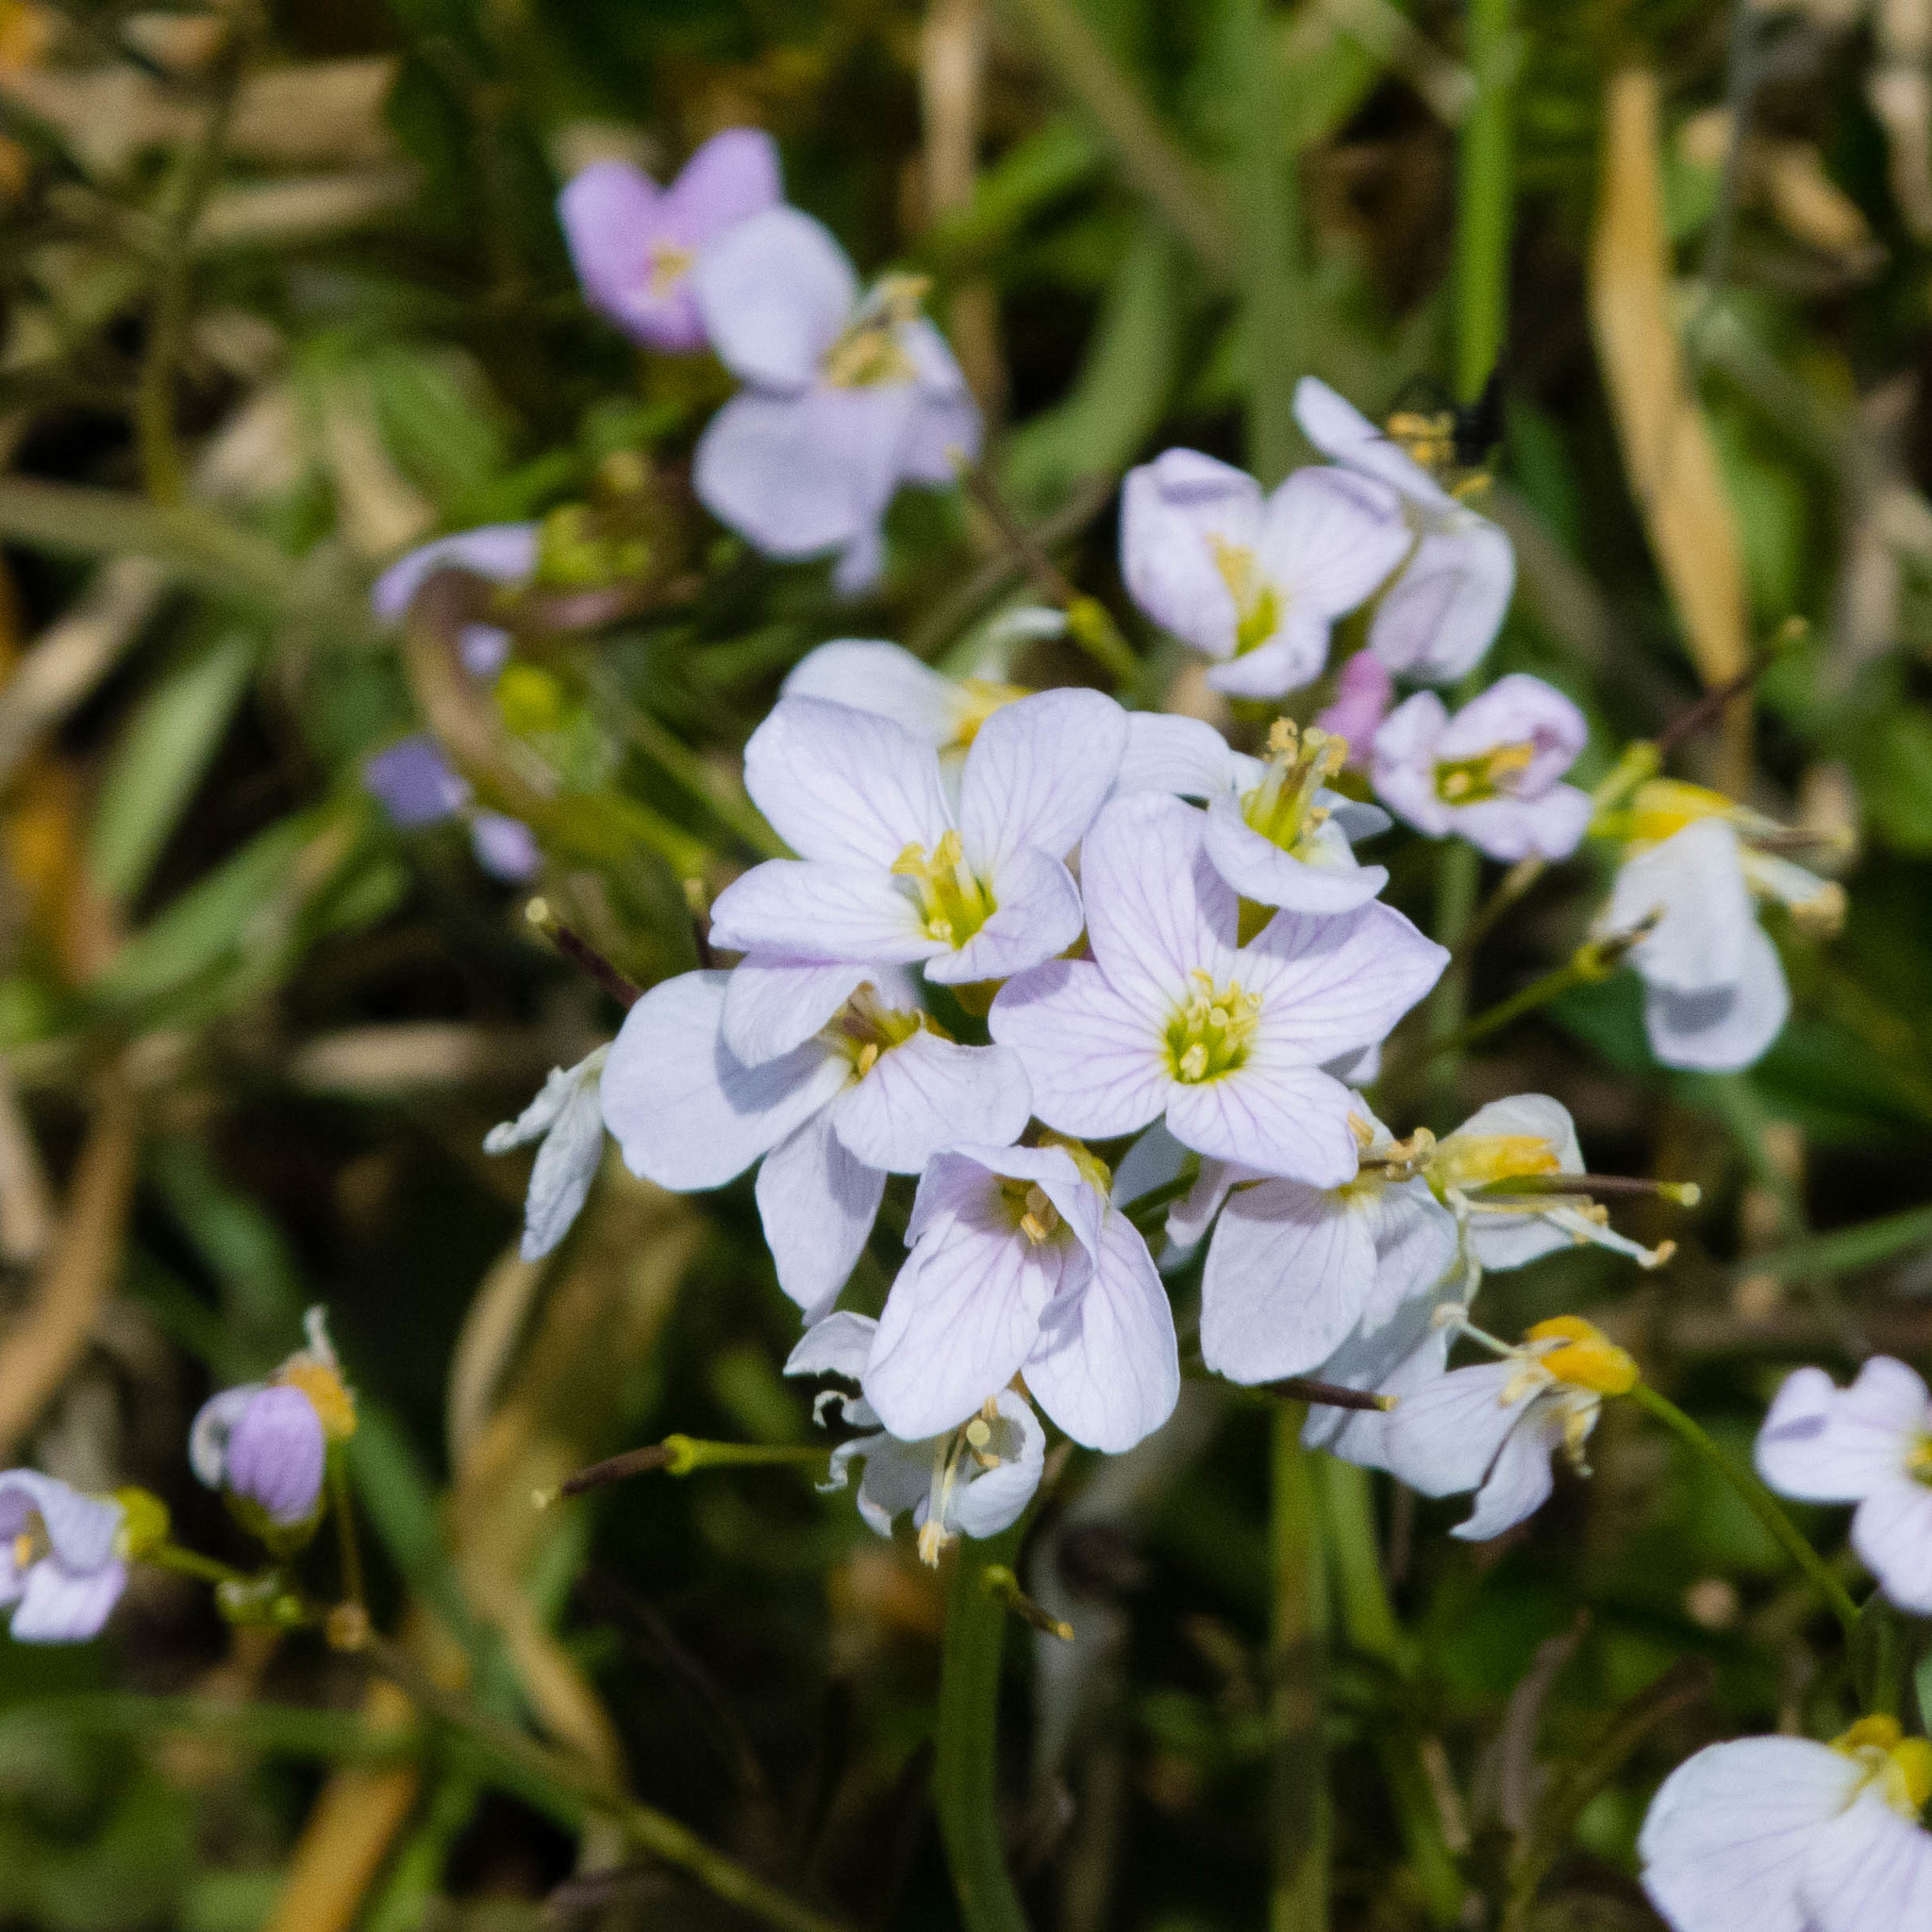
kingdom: Plantae
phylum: Tracheophyta
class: Magnoliopsida
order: Brassicales
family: Brassicaceae
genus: Cardamine
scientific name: Cardamine pratensis
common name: Cuckoo flower
